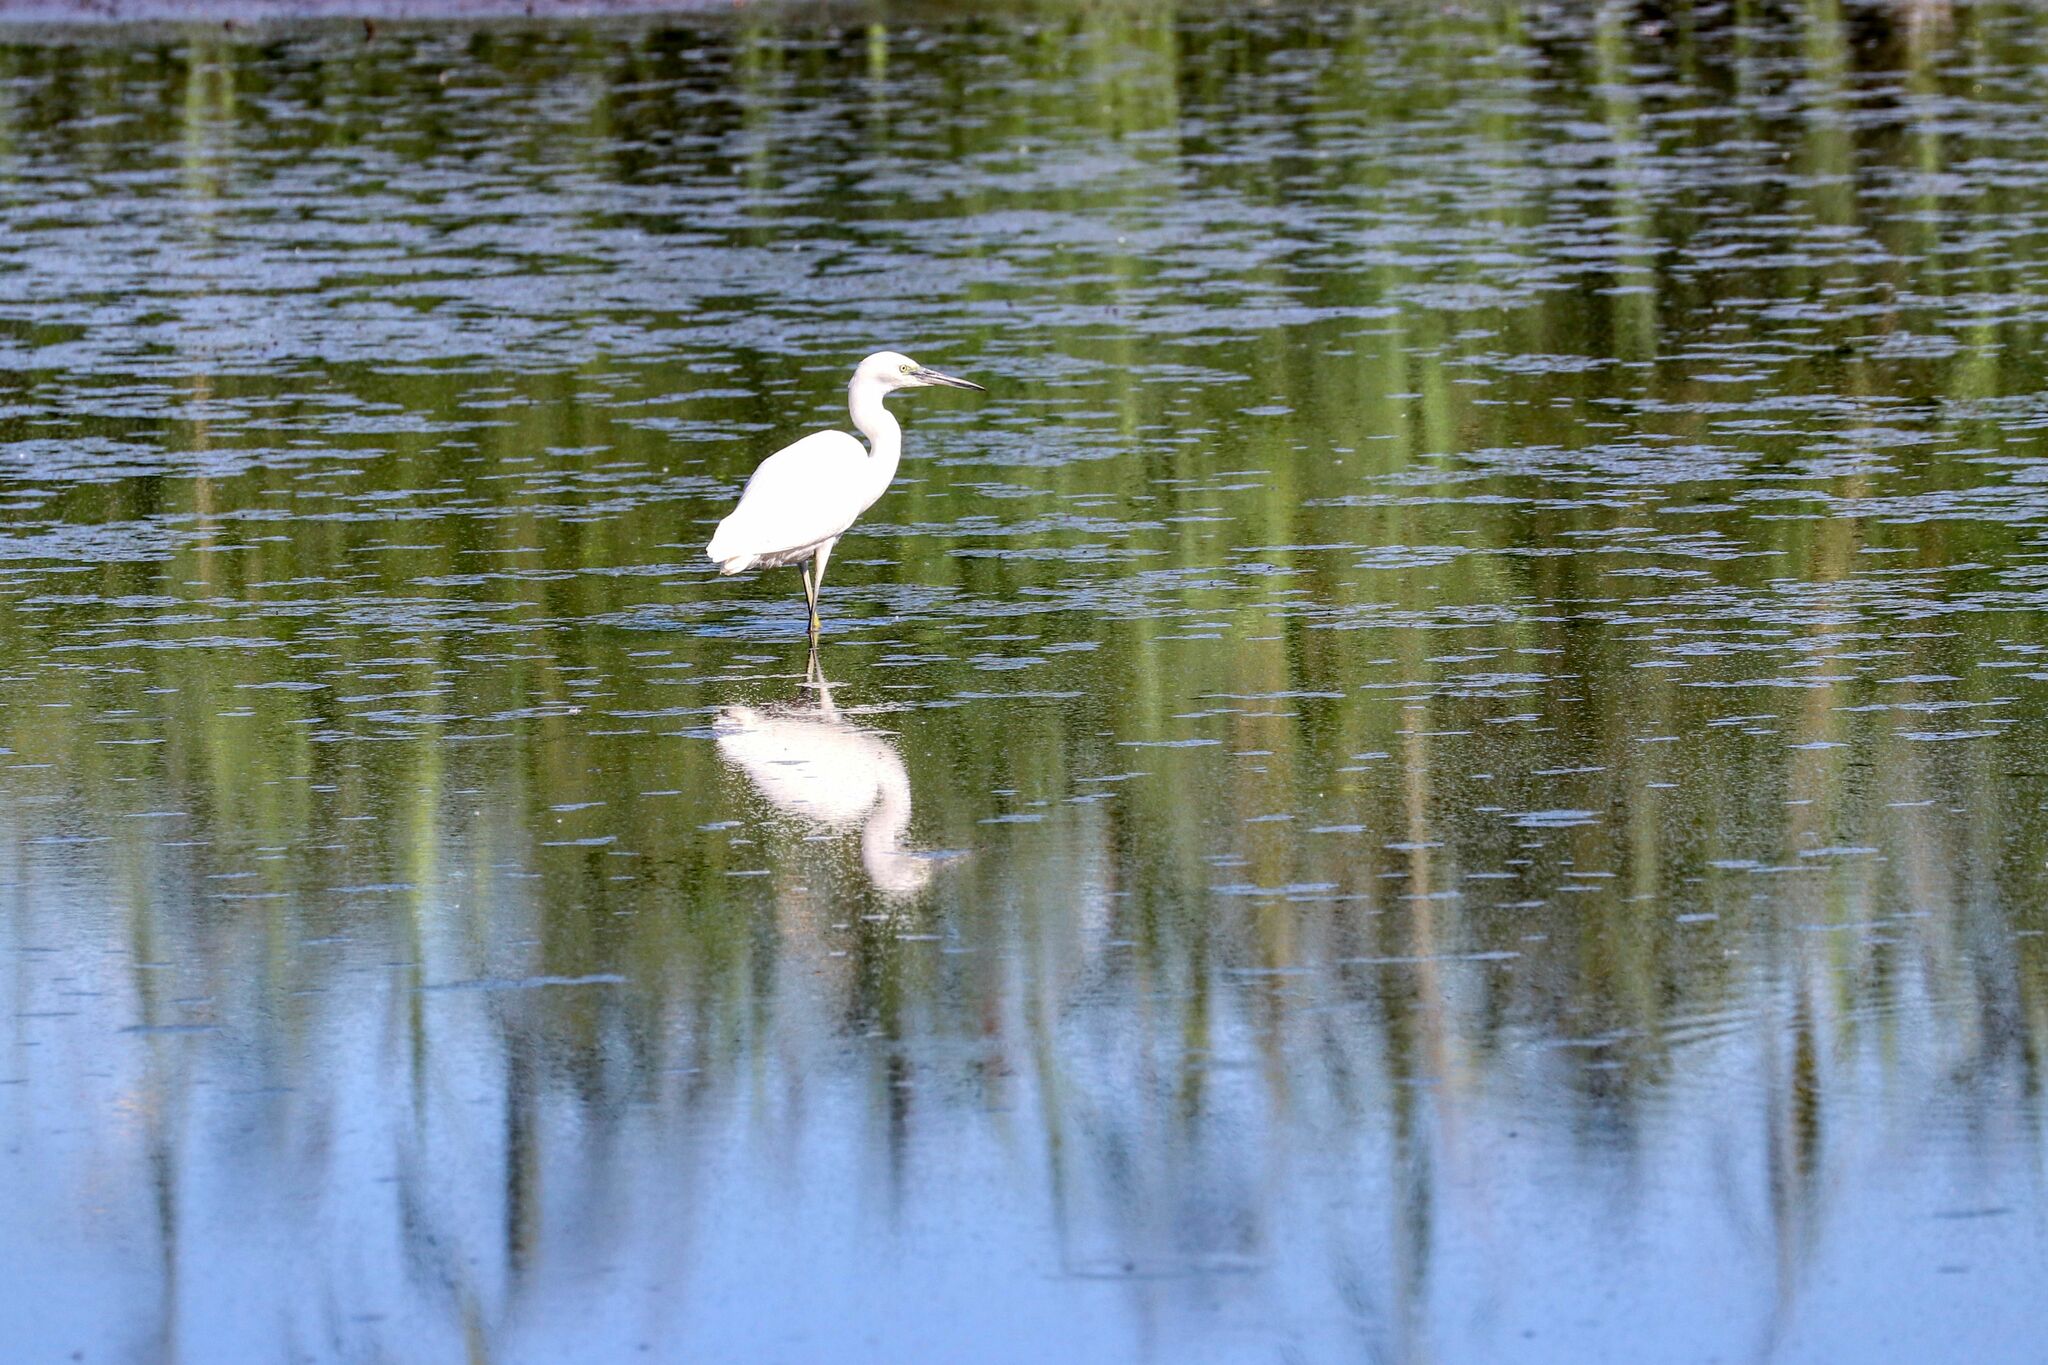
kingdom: Animalia
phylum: Chordata
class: Aves
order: Pelecaniformes
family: Ardeidae
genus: Egretta
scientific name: Egretta garzetta
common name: Little egret
